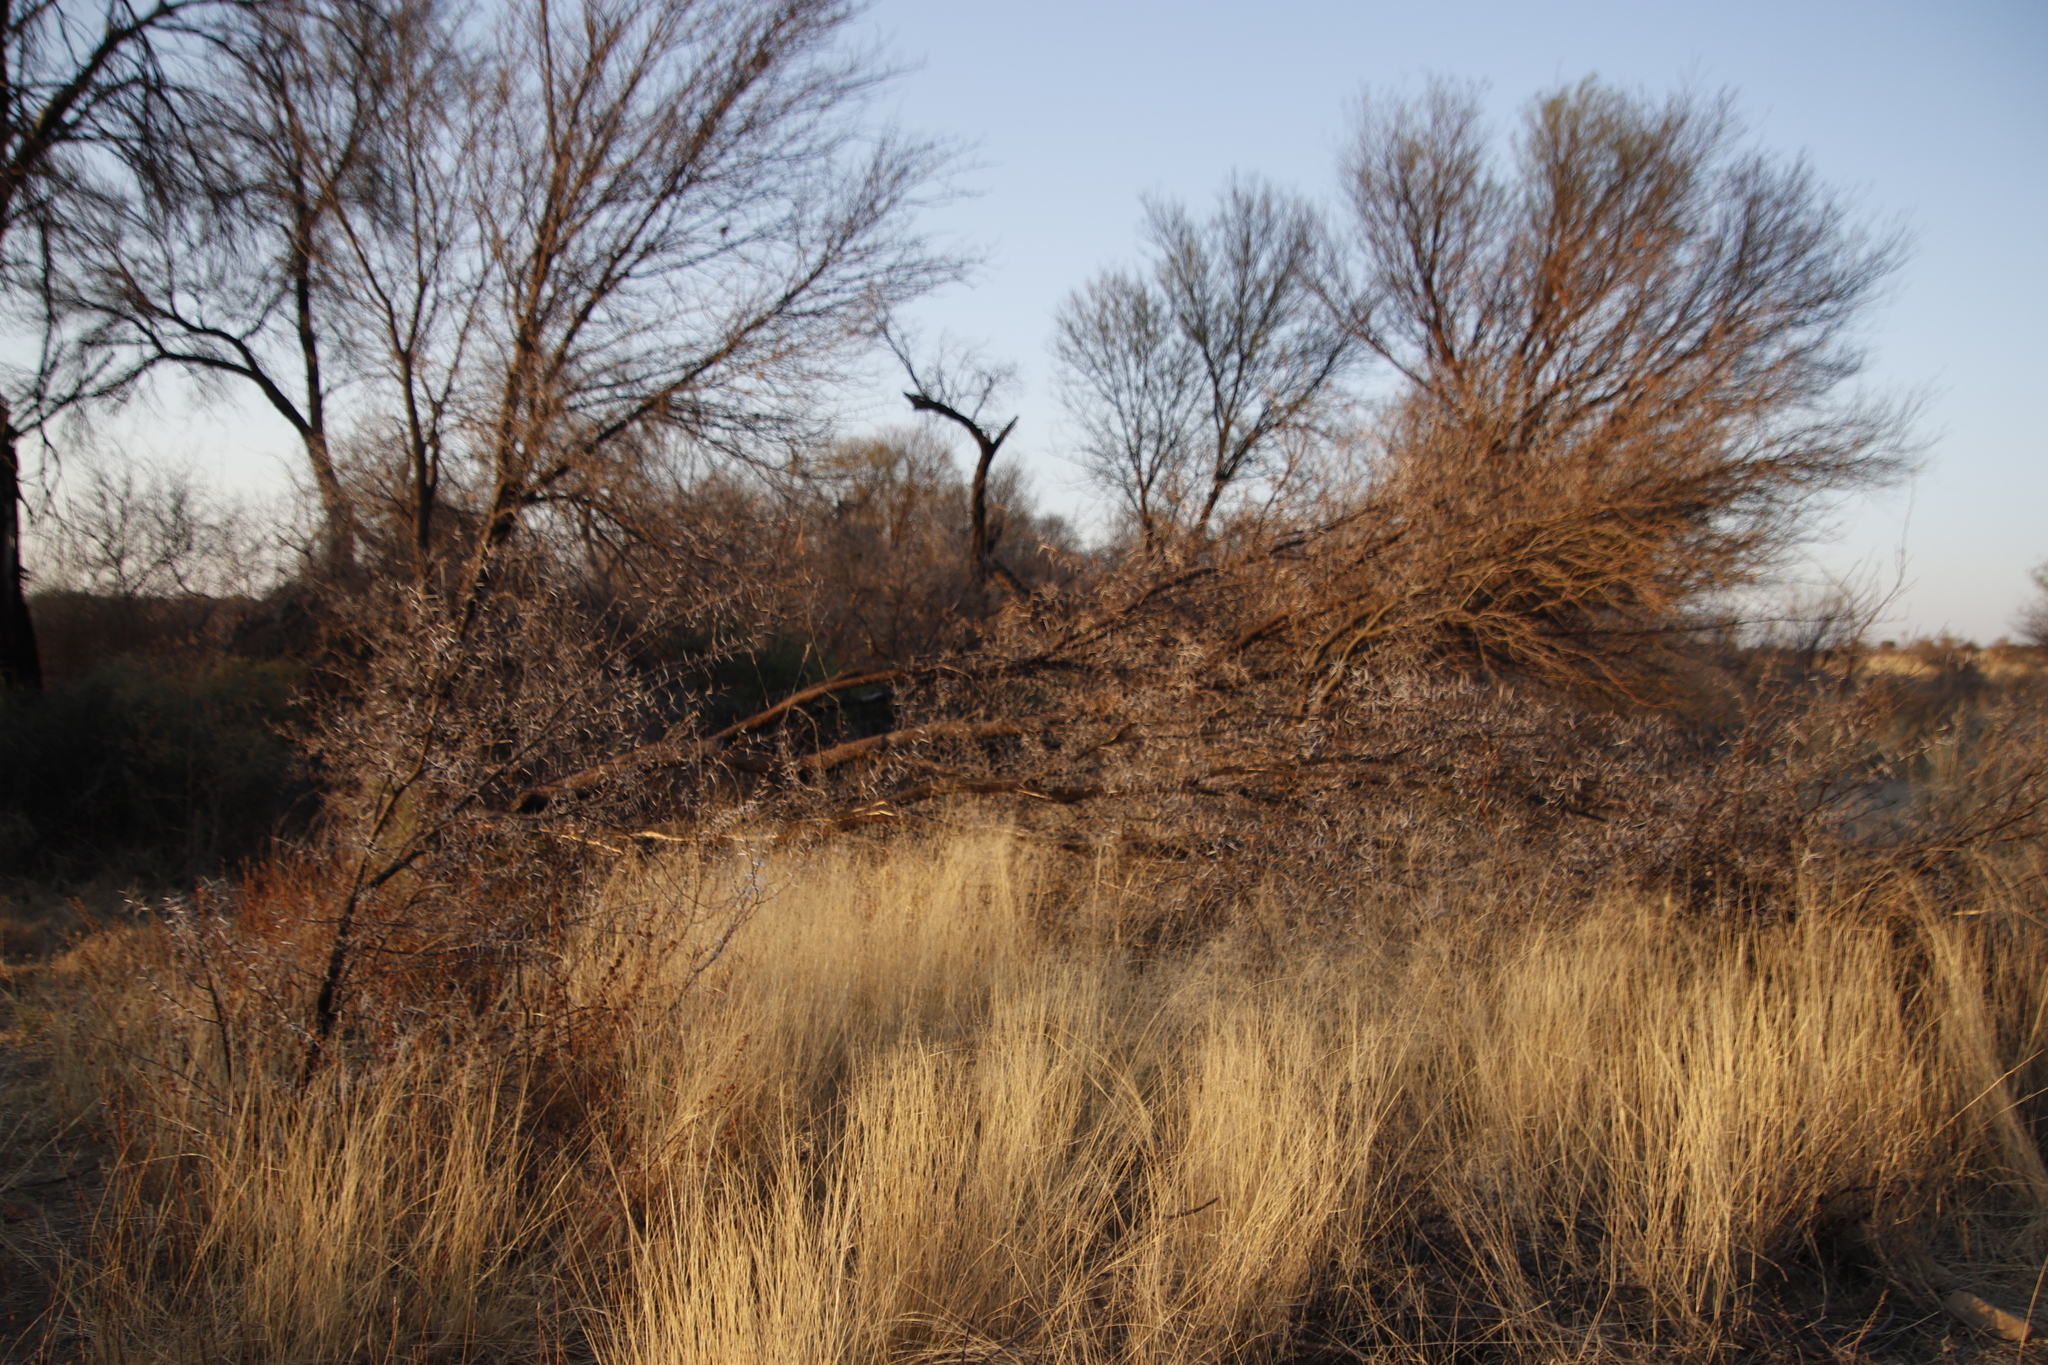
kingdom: Plantae
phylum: Tracheophyta
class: Magnoliopsida
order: Fabales
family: Fabaceae
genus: Vachellia
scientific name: Vachellia karroo
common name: Sweet thorn
